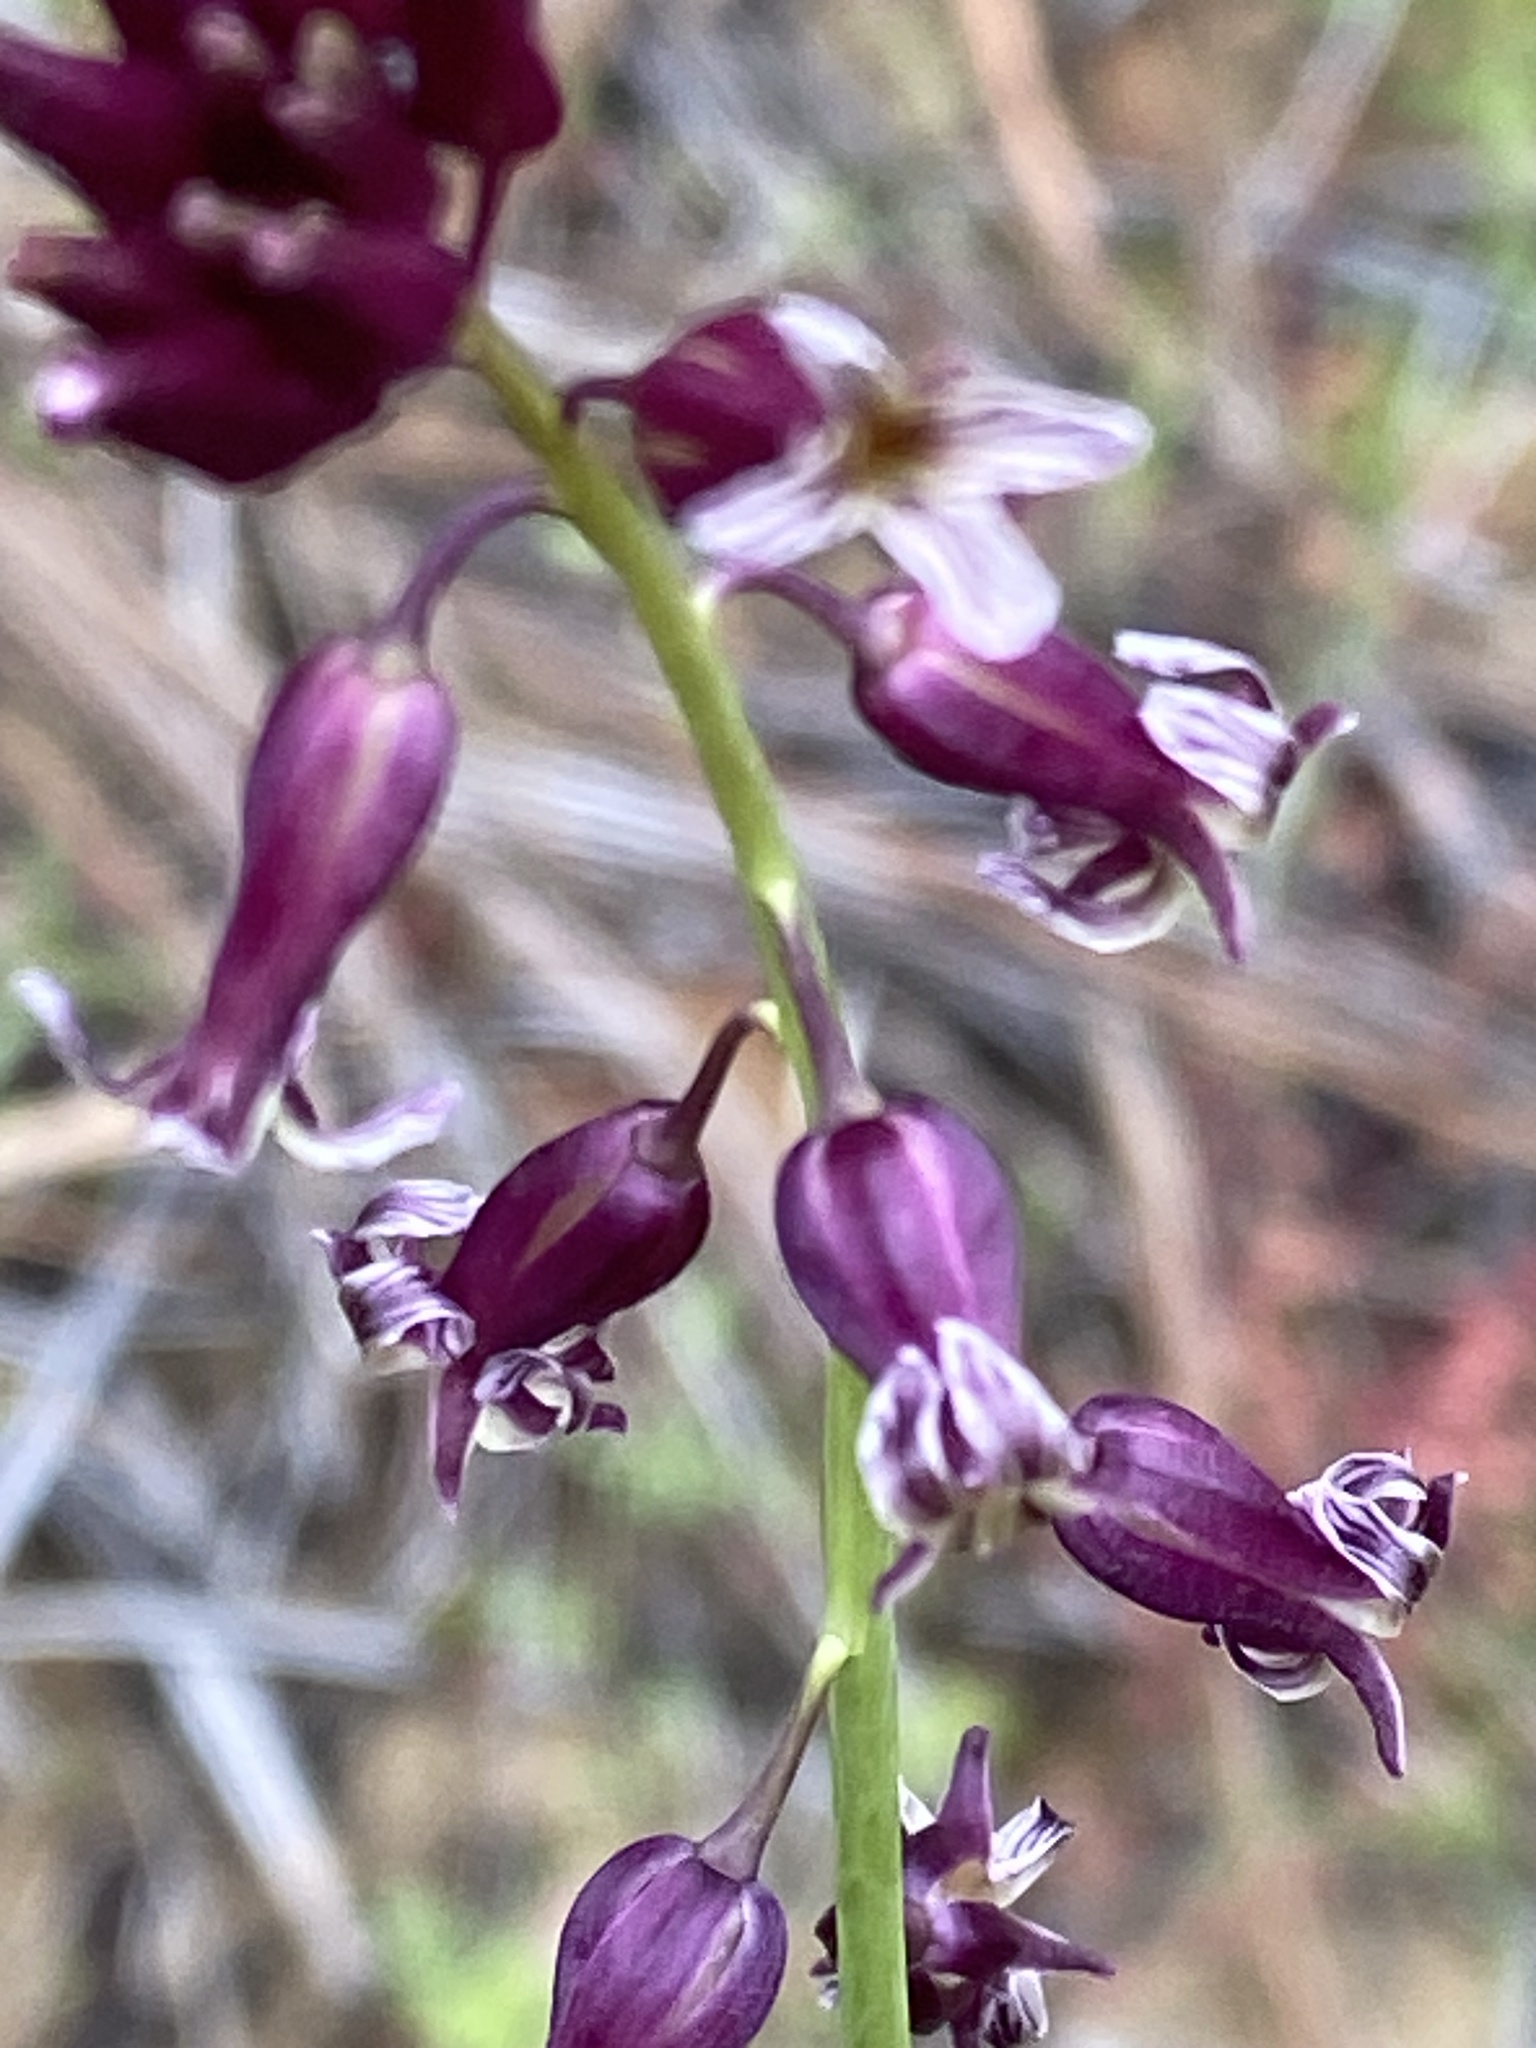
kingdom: Plantae
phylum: Tracheophyta
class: Magnoliopsida
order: Brassicales
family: Brassicaceae
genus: Streptanthus
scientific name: Streptanthus heterophyllus
